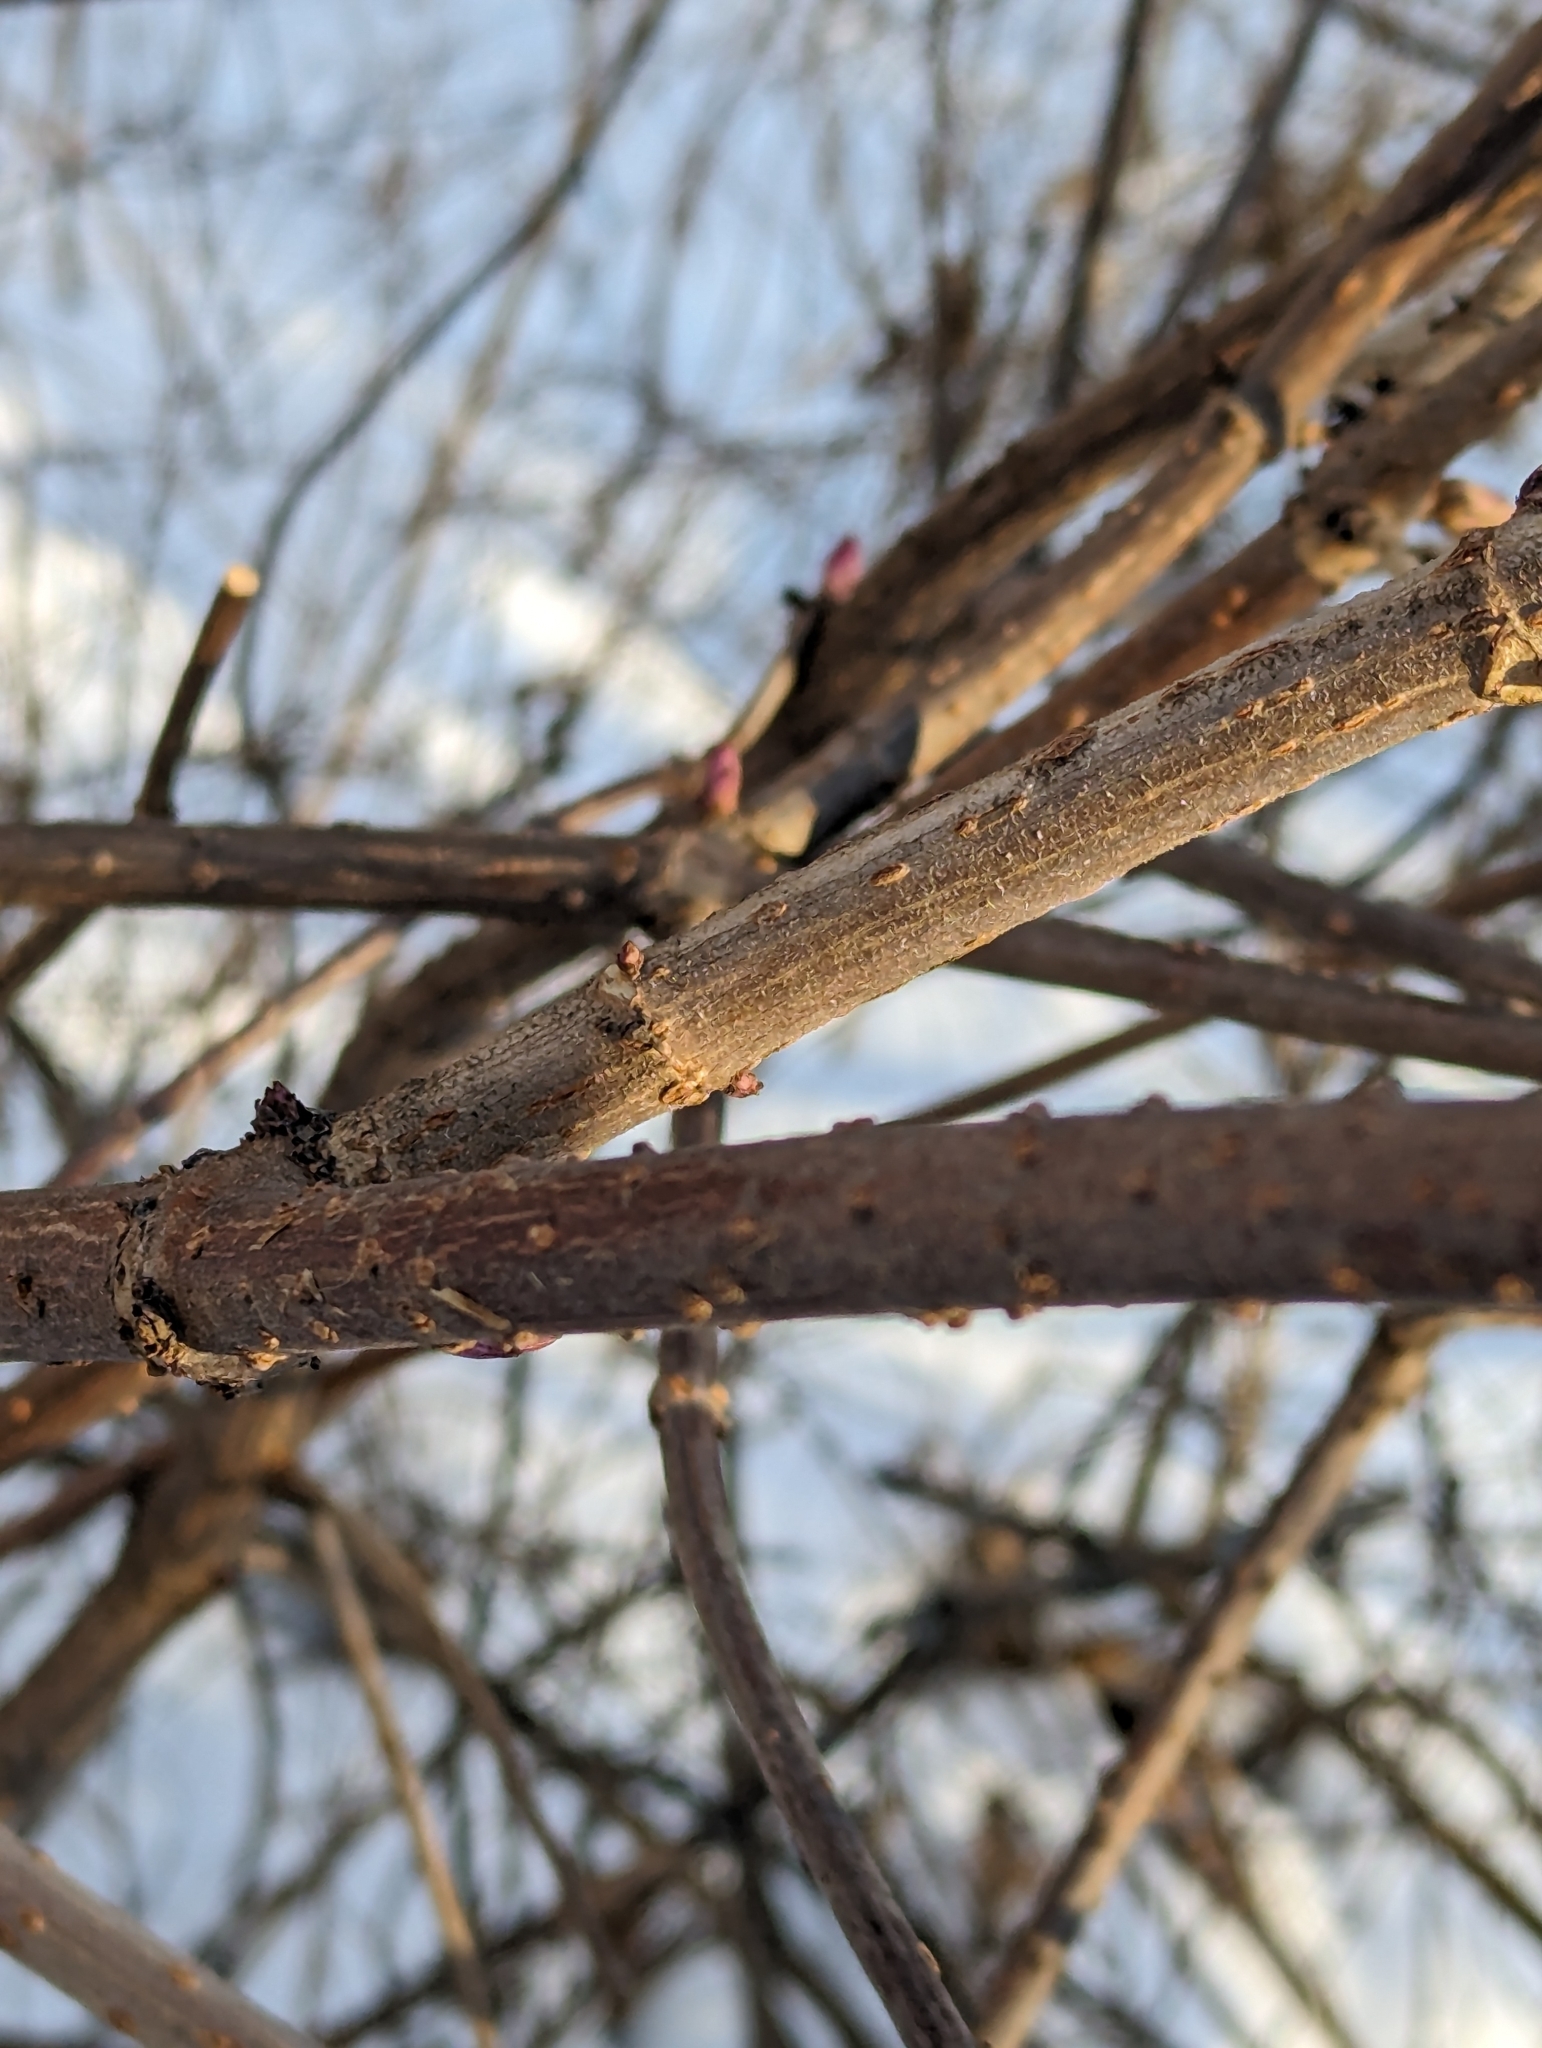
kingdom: Plantae
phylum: Tracheophyta
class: Magnoliopsida
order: Dipsacales
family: Viburnaceae
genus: Sambucus
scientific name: Sambucus racemosa
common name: Red-berried elder
